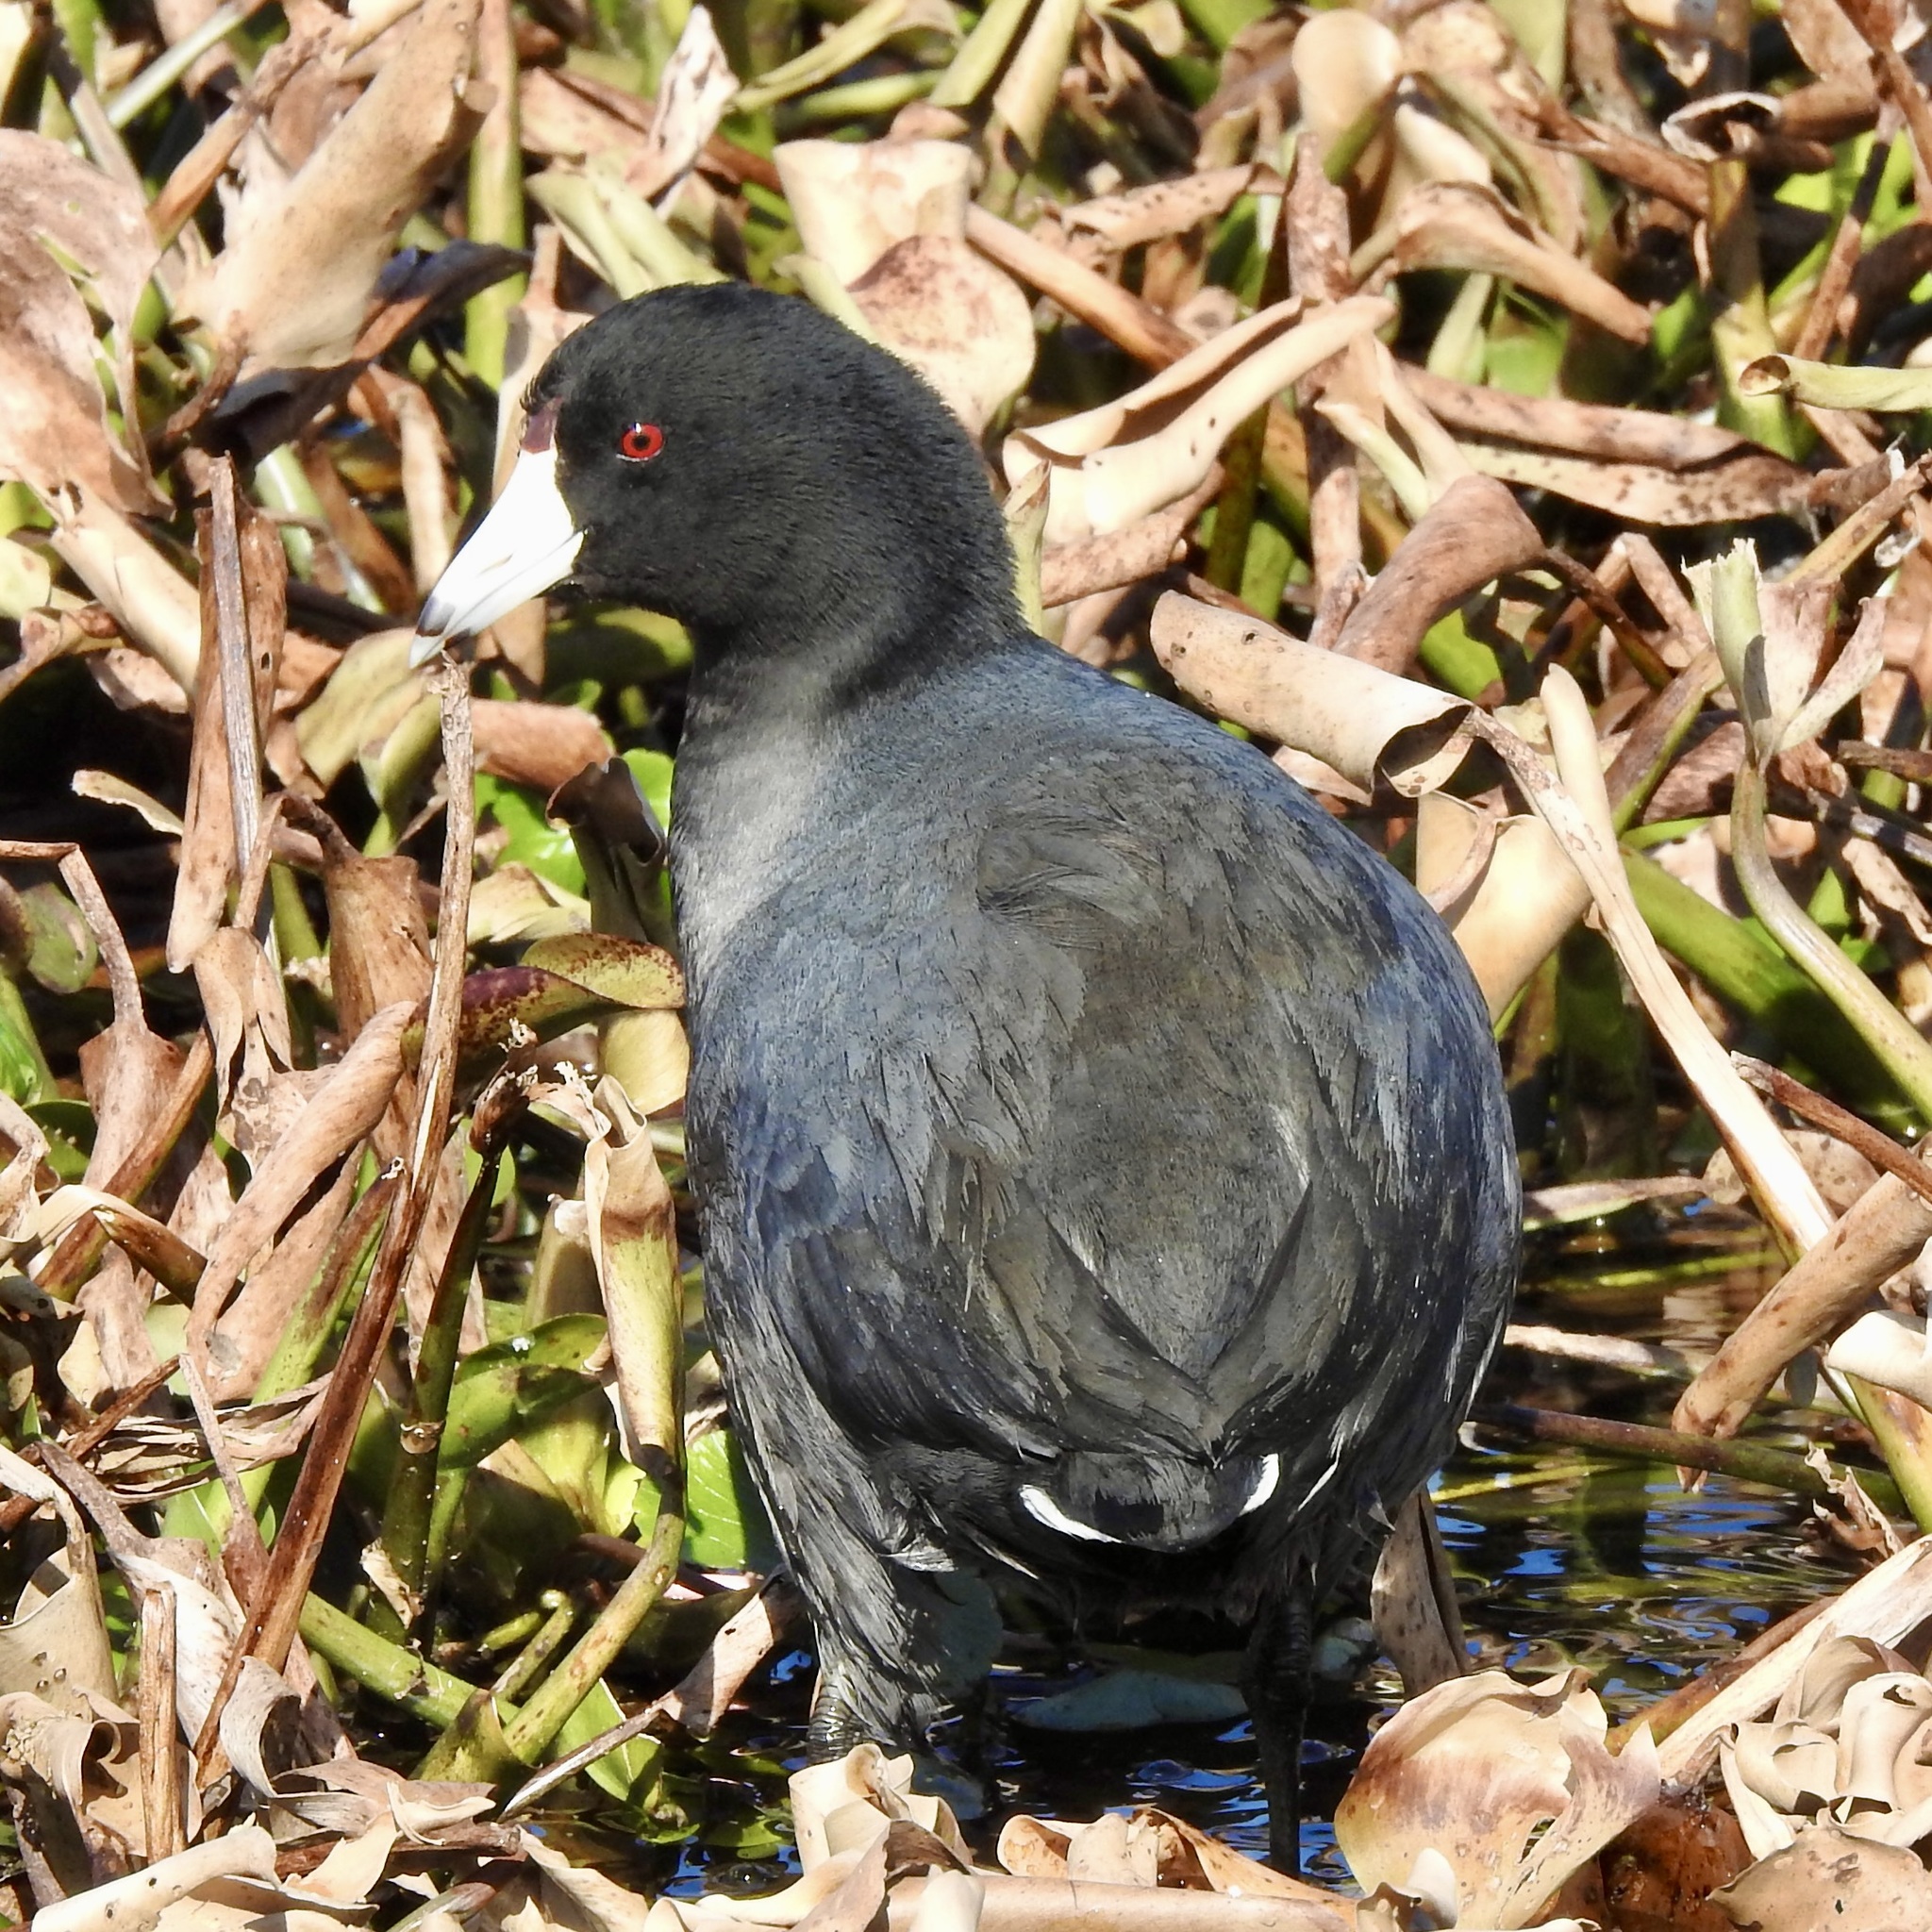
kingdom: Animalia
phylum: Chordata
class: Aves
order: Gruiformes
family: Rallidae
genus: Fulica
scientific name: Fulica americana
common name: American coot
